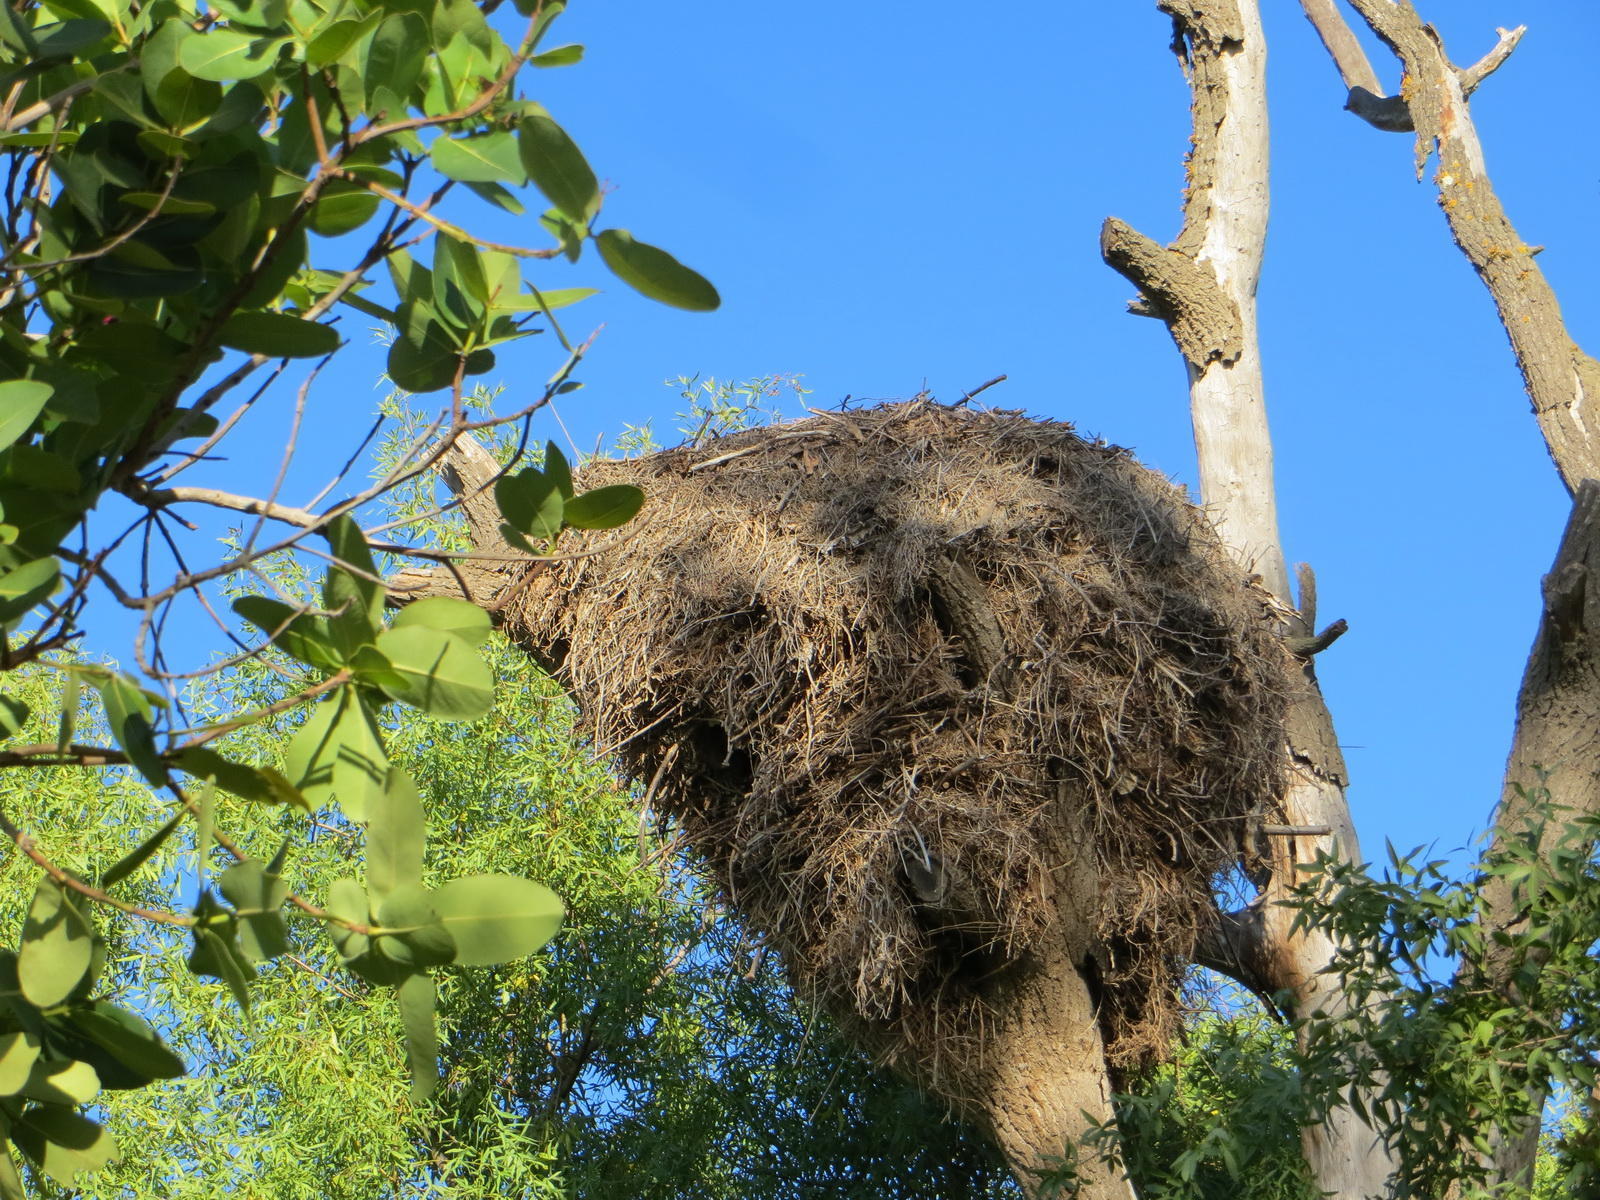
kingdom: Animalia
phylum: Chordata
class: Aves
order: Pelecaniformes
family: Scopidae
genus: Scopus
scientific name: Scopus umbretta
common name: Hamerkop
